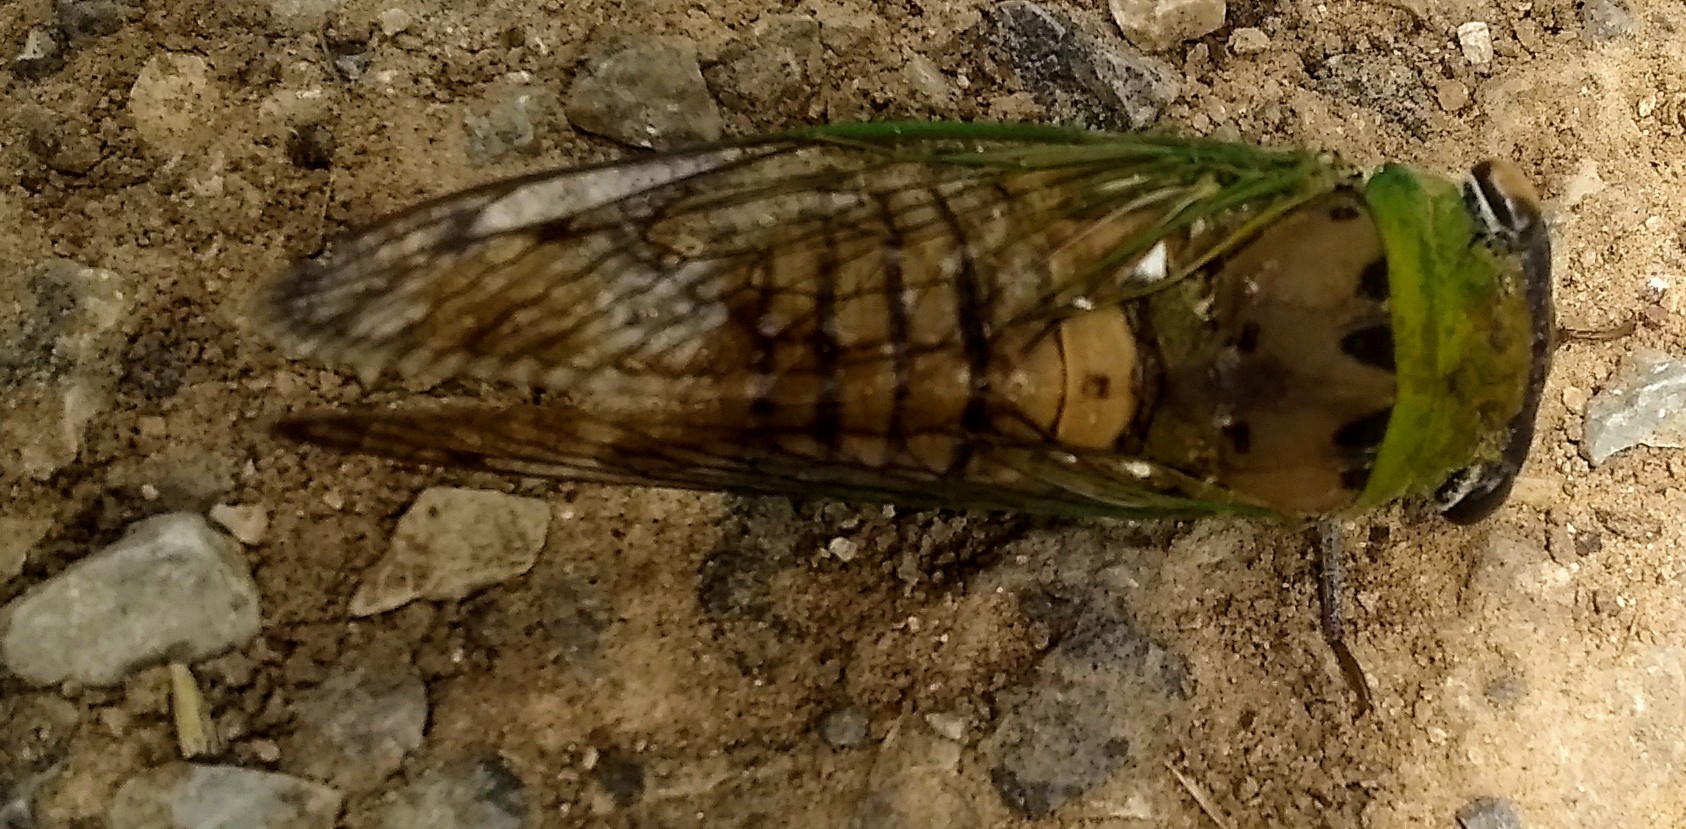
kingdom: Animalia
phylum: Arthropoda
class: Insecta
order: Hemiptera
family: Cicadidae
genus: Neotibicen
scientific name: Neotibicen superbus
